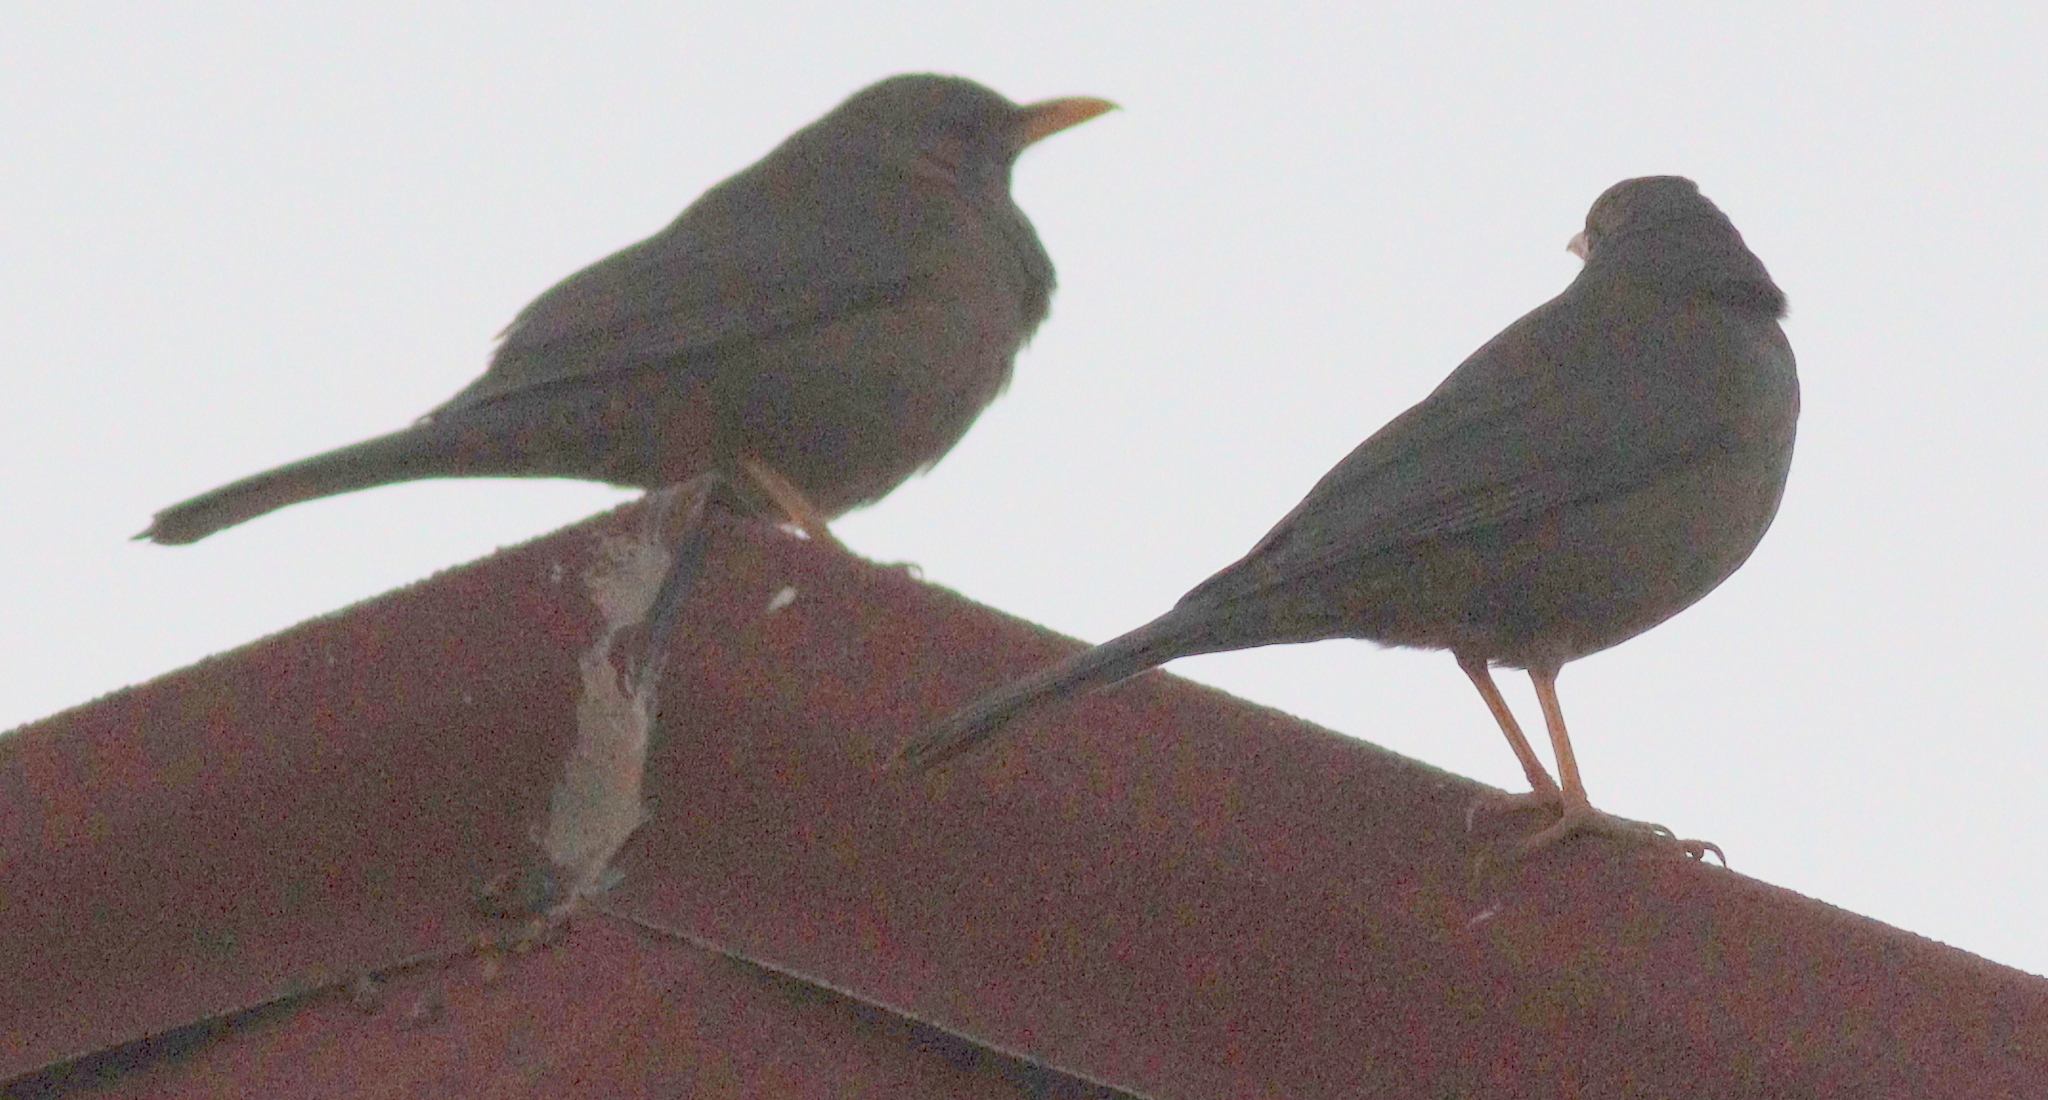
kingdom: Animalia
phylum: Chordata
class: Aves
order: Passeriformes
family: Turdidae
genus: Turdus
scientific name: Turdus menachensis
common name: Yemen thrush
